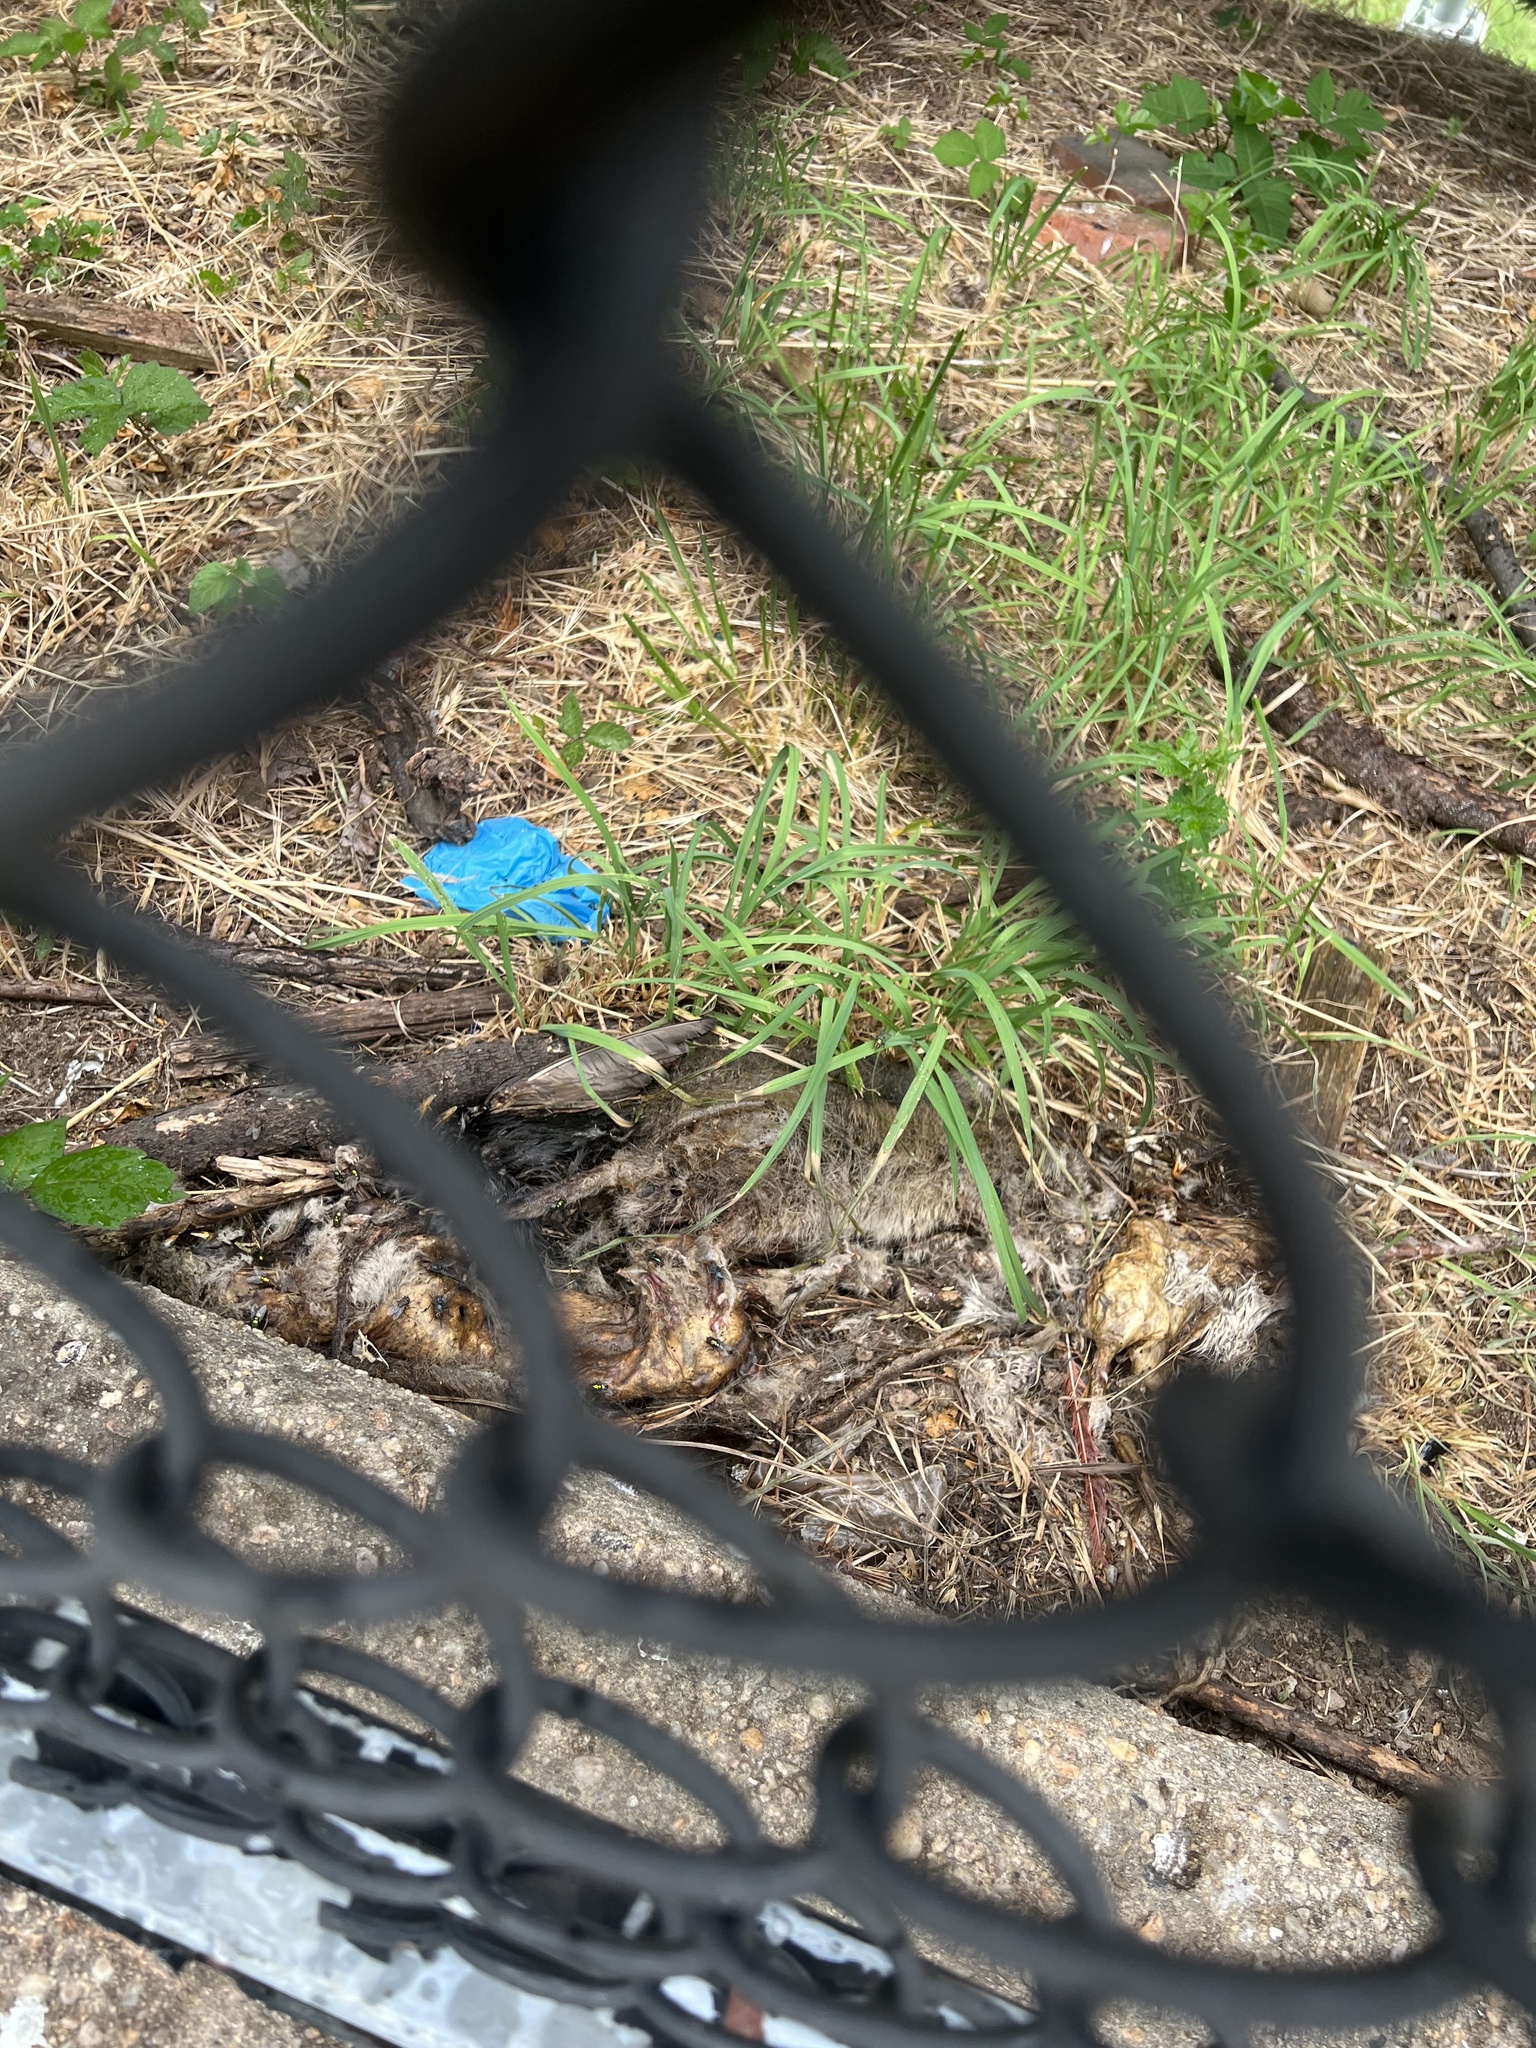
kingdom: Animalia
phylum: Chordata
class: Mammalia
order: Rodentia
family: Muridae
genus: Rattus
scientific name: Rattus norvegicus
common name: Brown rat
